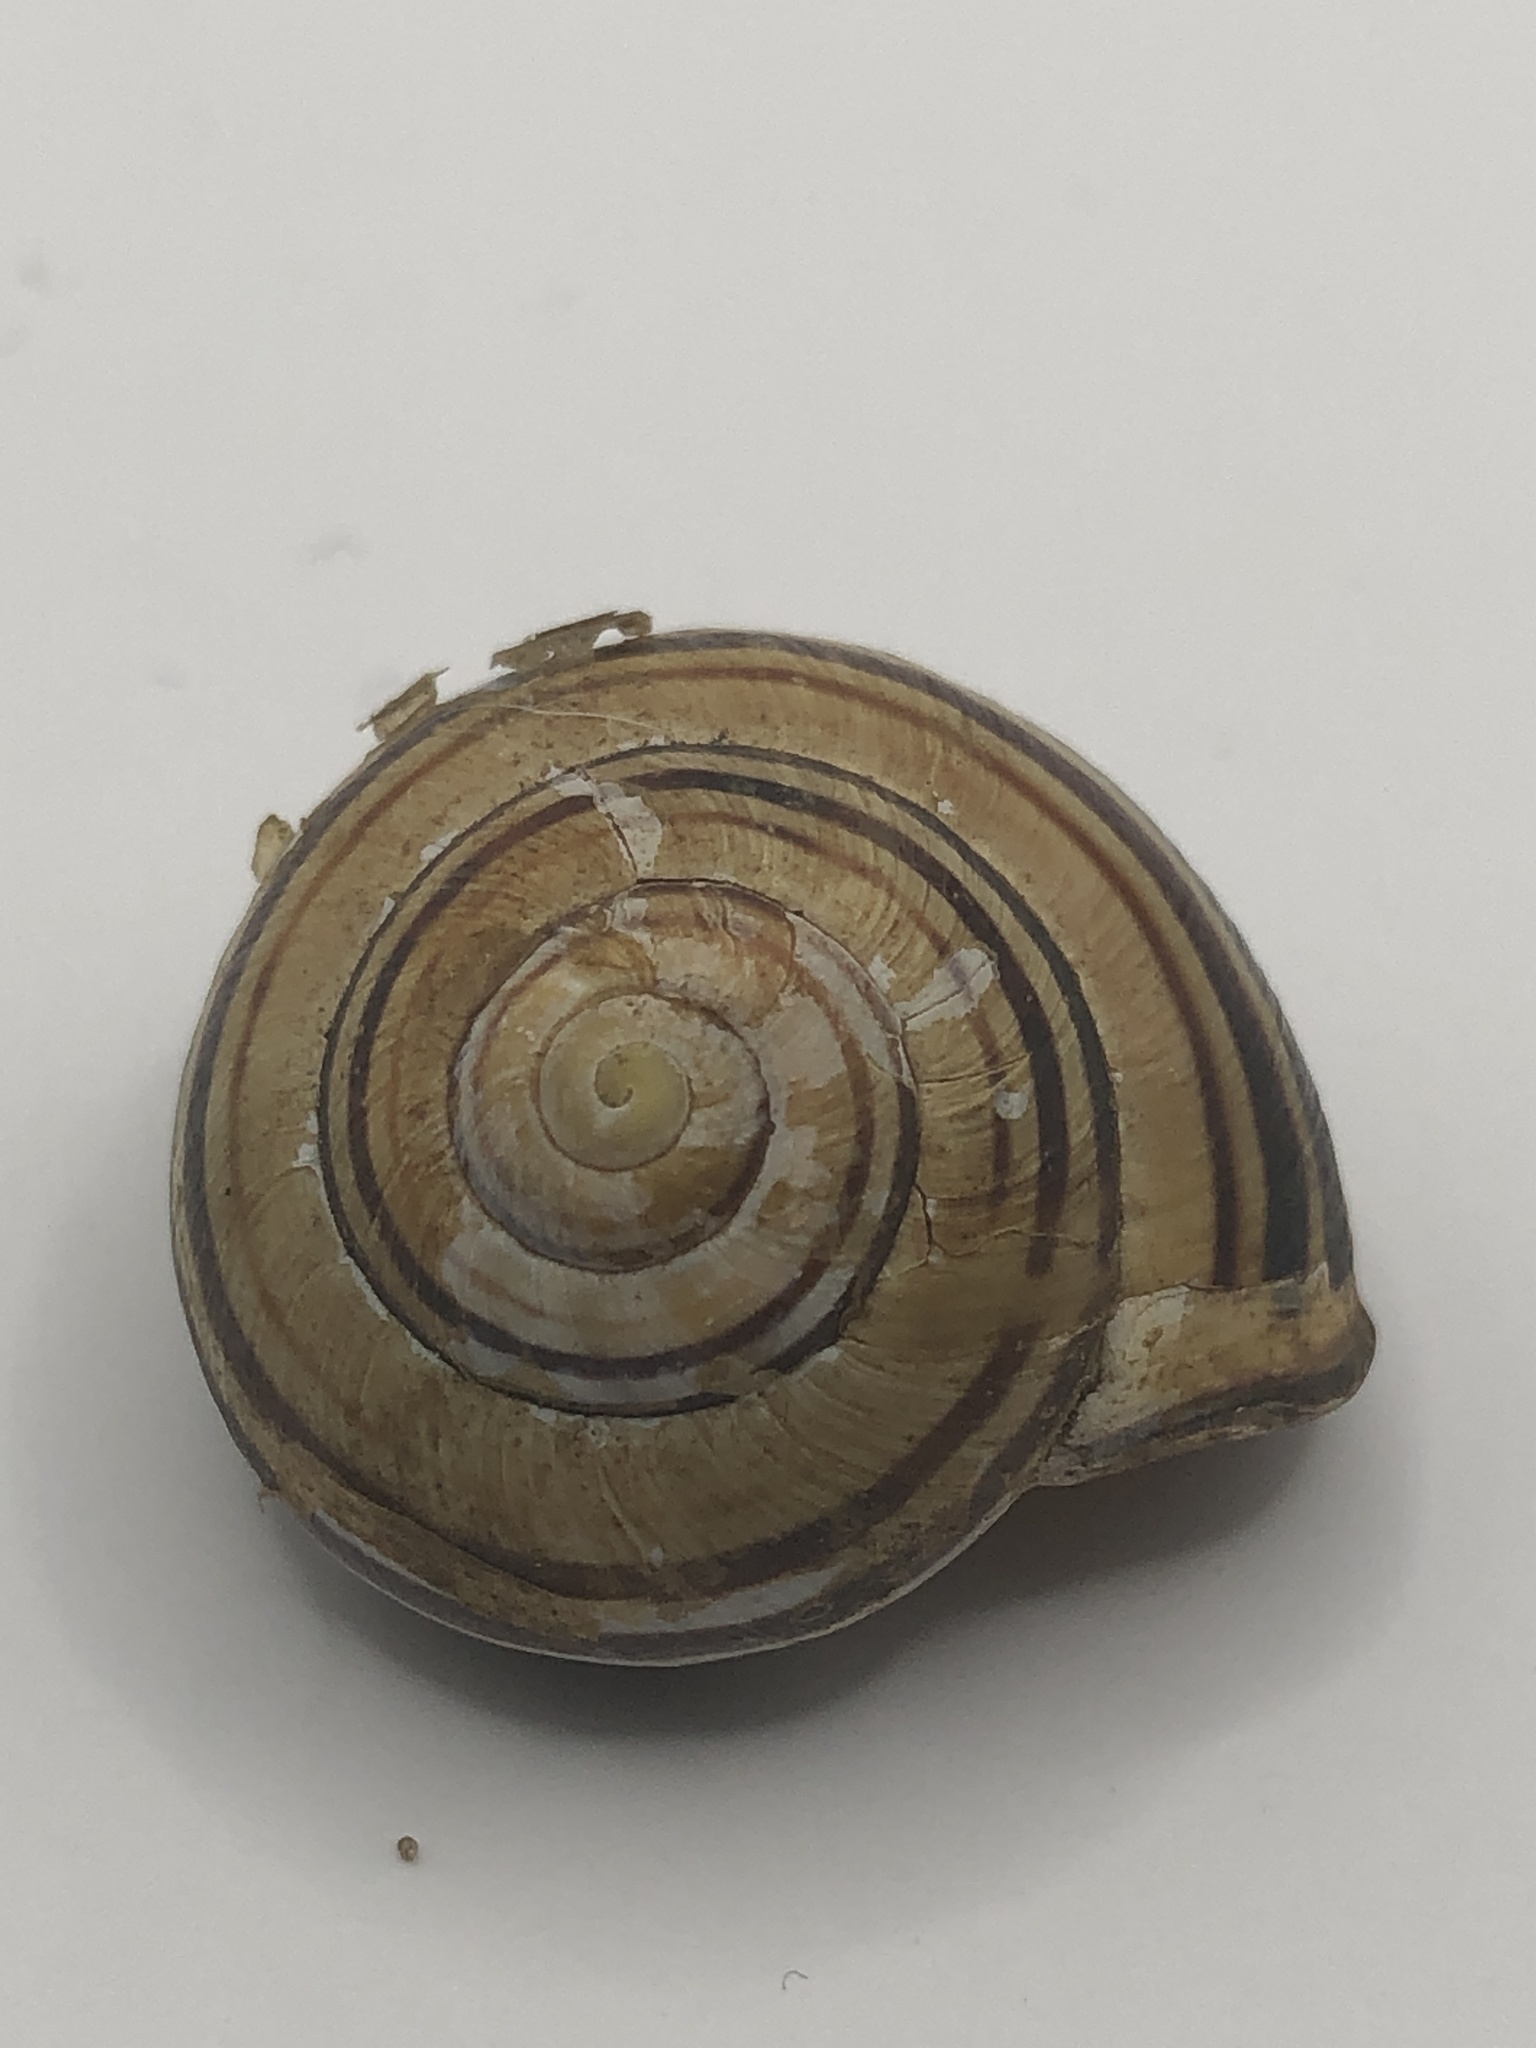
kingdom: Animalia
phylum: Mollusca
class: Gastropoda
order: Stylommatophora
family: Helicidae
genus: Cepaea
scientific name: Cepaea nemoralis
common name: Grovesnail
